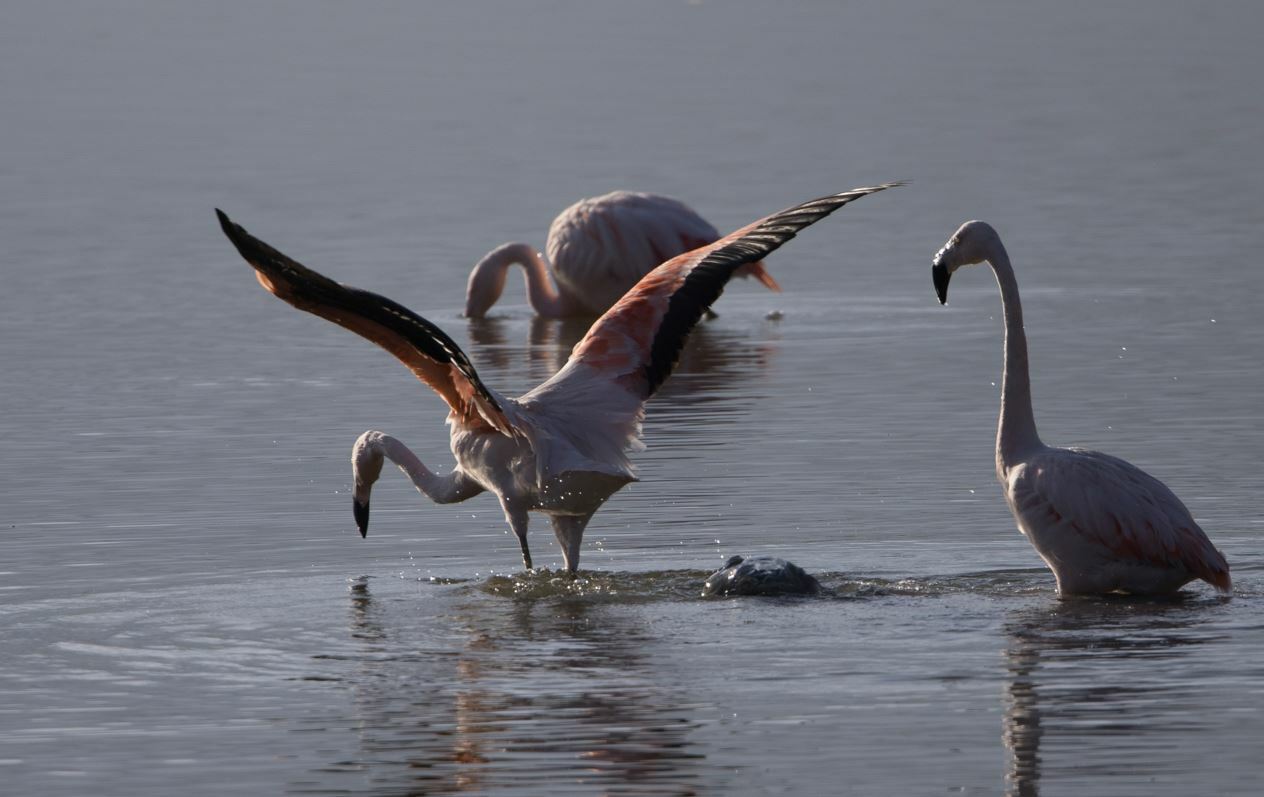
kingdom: Animalia
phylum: Chordata
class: Aves
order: Phoenicopteriformes
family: Phoenicopteridae
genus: Phoenicopterus
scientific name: Phoenicopterus chilensis
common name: Chilean flamingo
